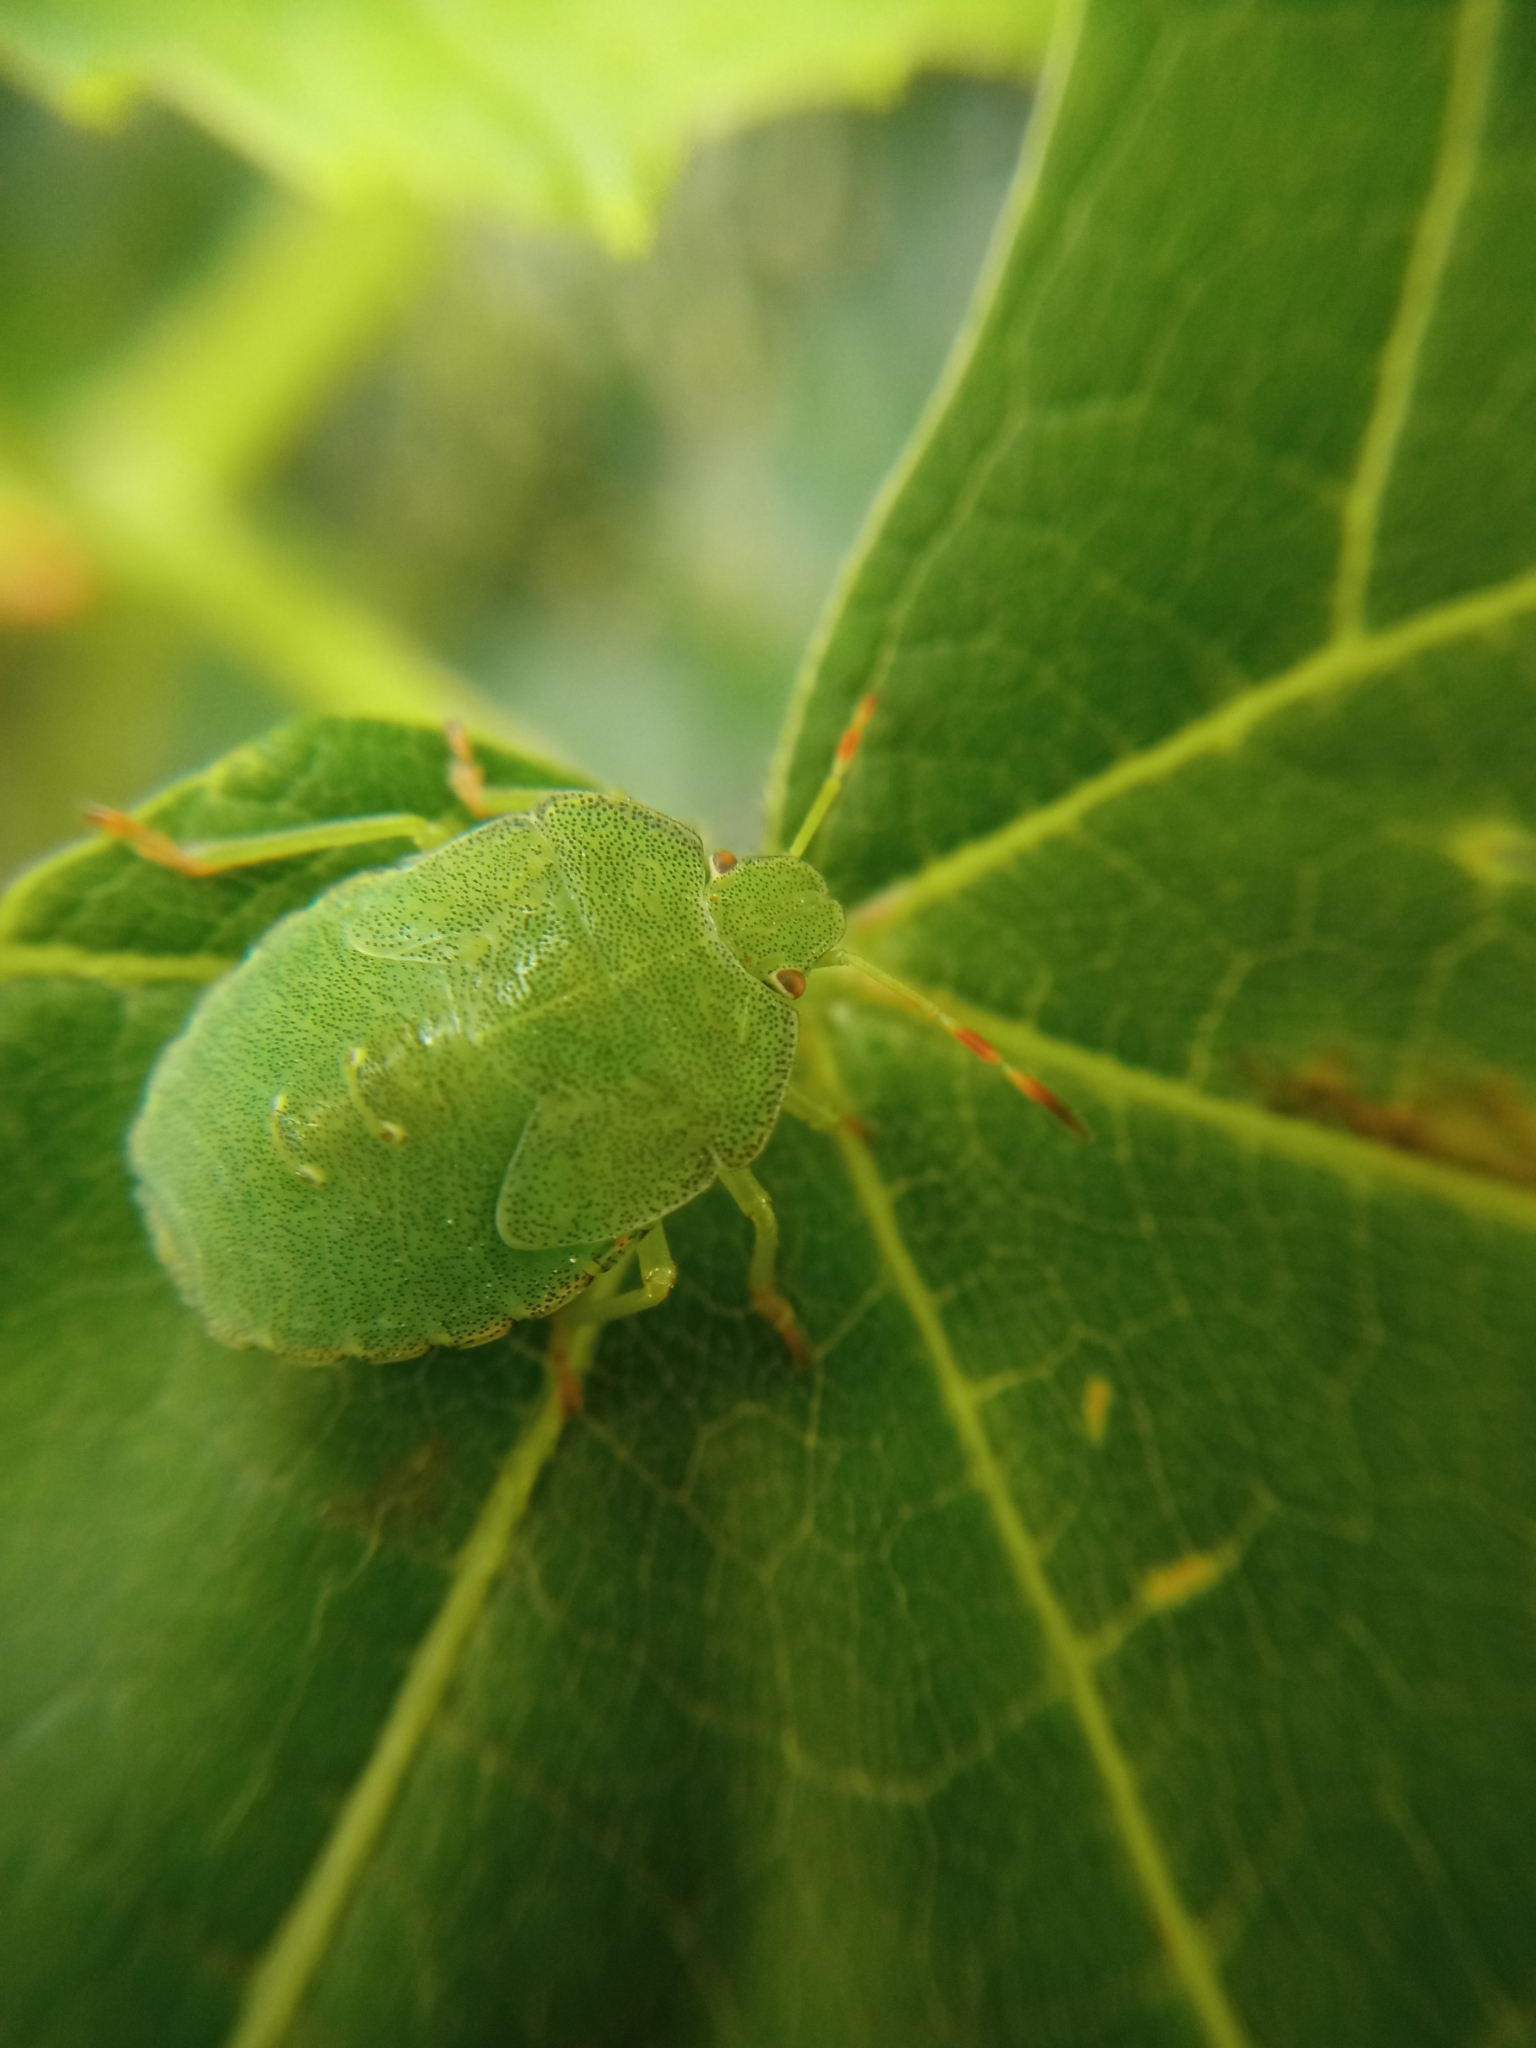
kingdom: Animalia
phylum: Arthropoda
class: Insecta
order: Hemiptera
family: Pentatomidae
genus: Palomena
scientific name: Palomena prasina
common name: Green shieldbug
